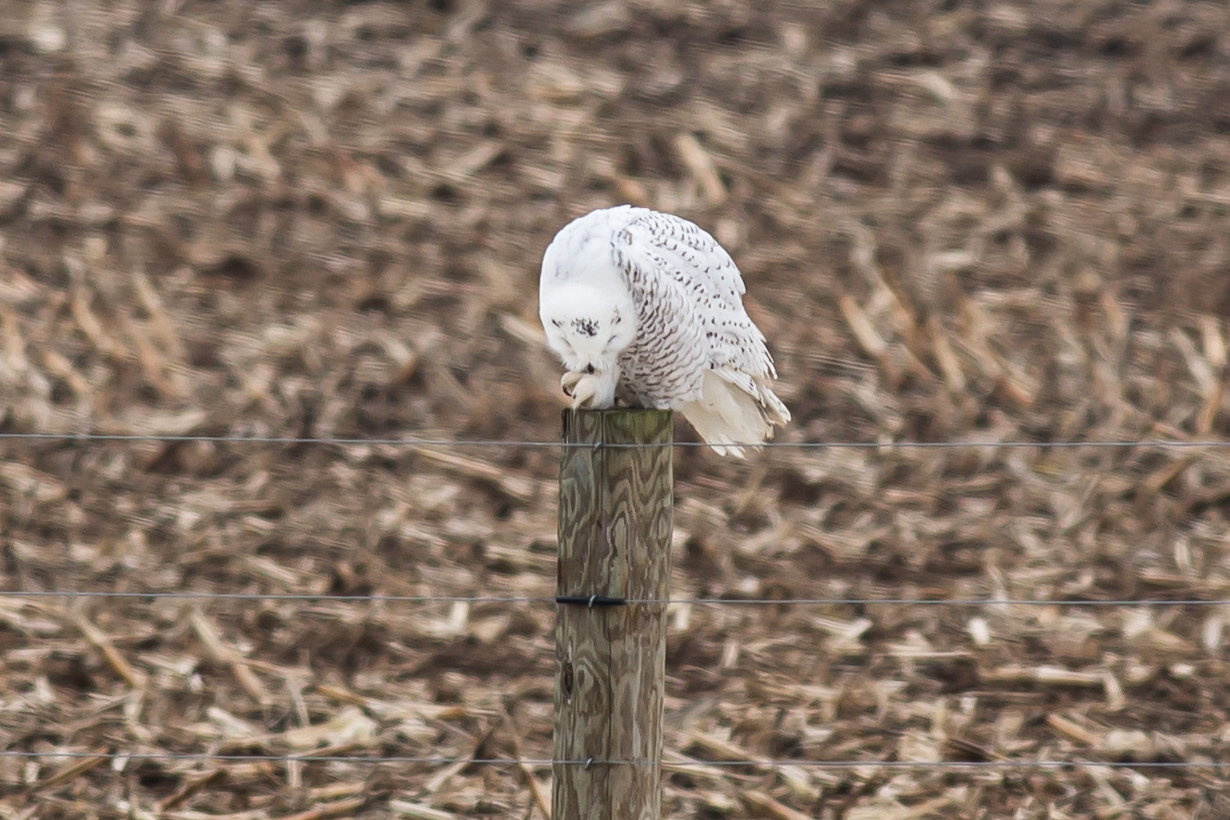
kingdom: Animalia
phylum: Chordata
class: Aves
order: Strigiformes
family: Strigidae
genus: Bubo
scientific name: Bubo scandiacus
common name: Snowy owl
